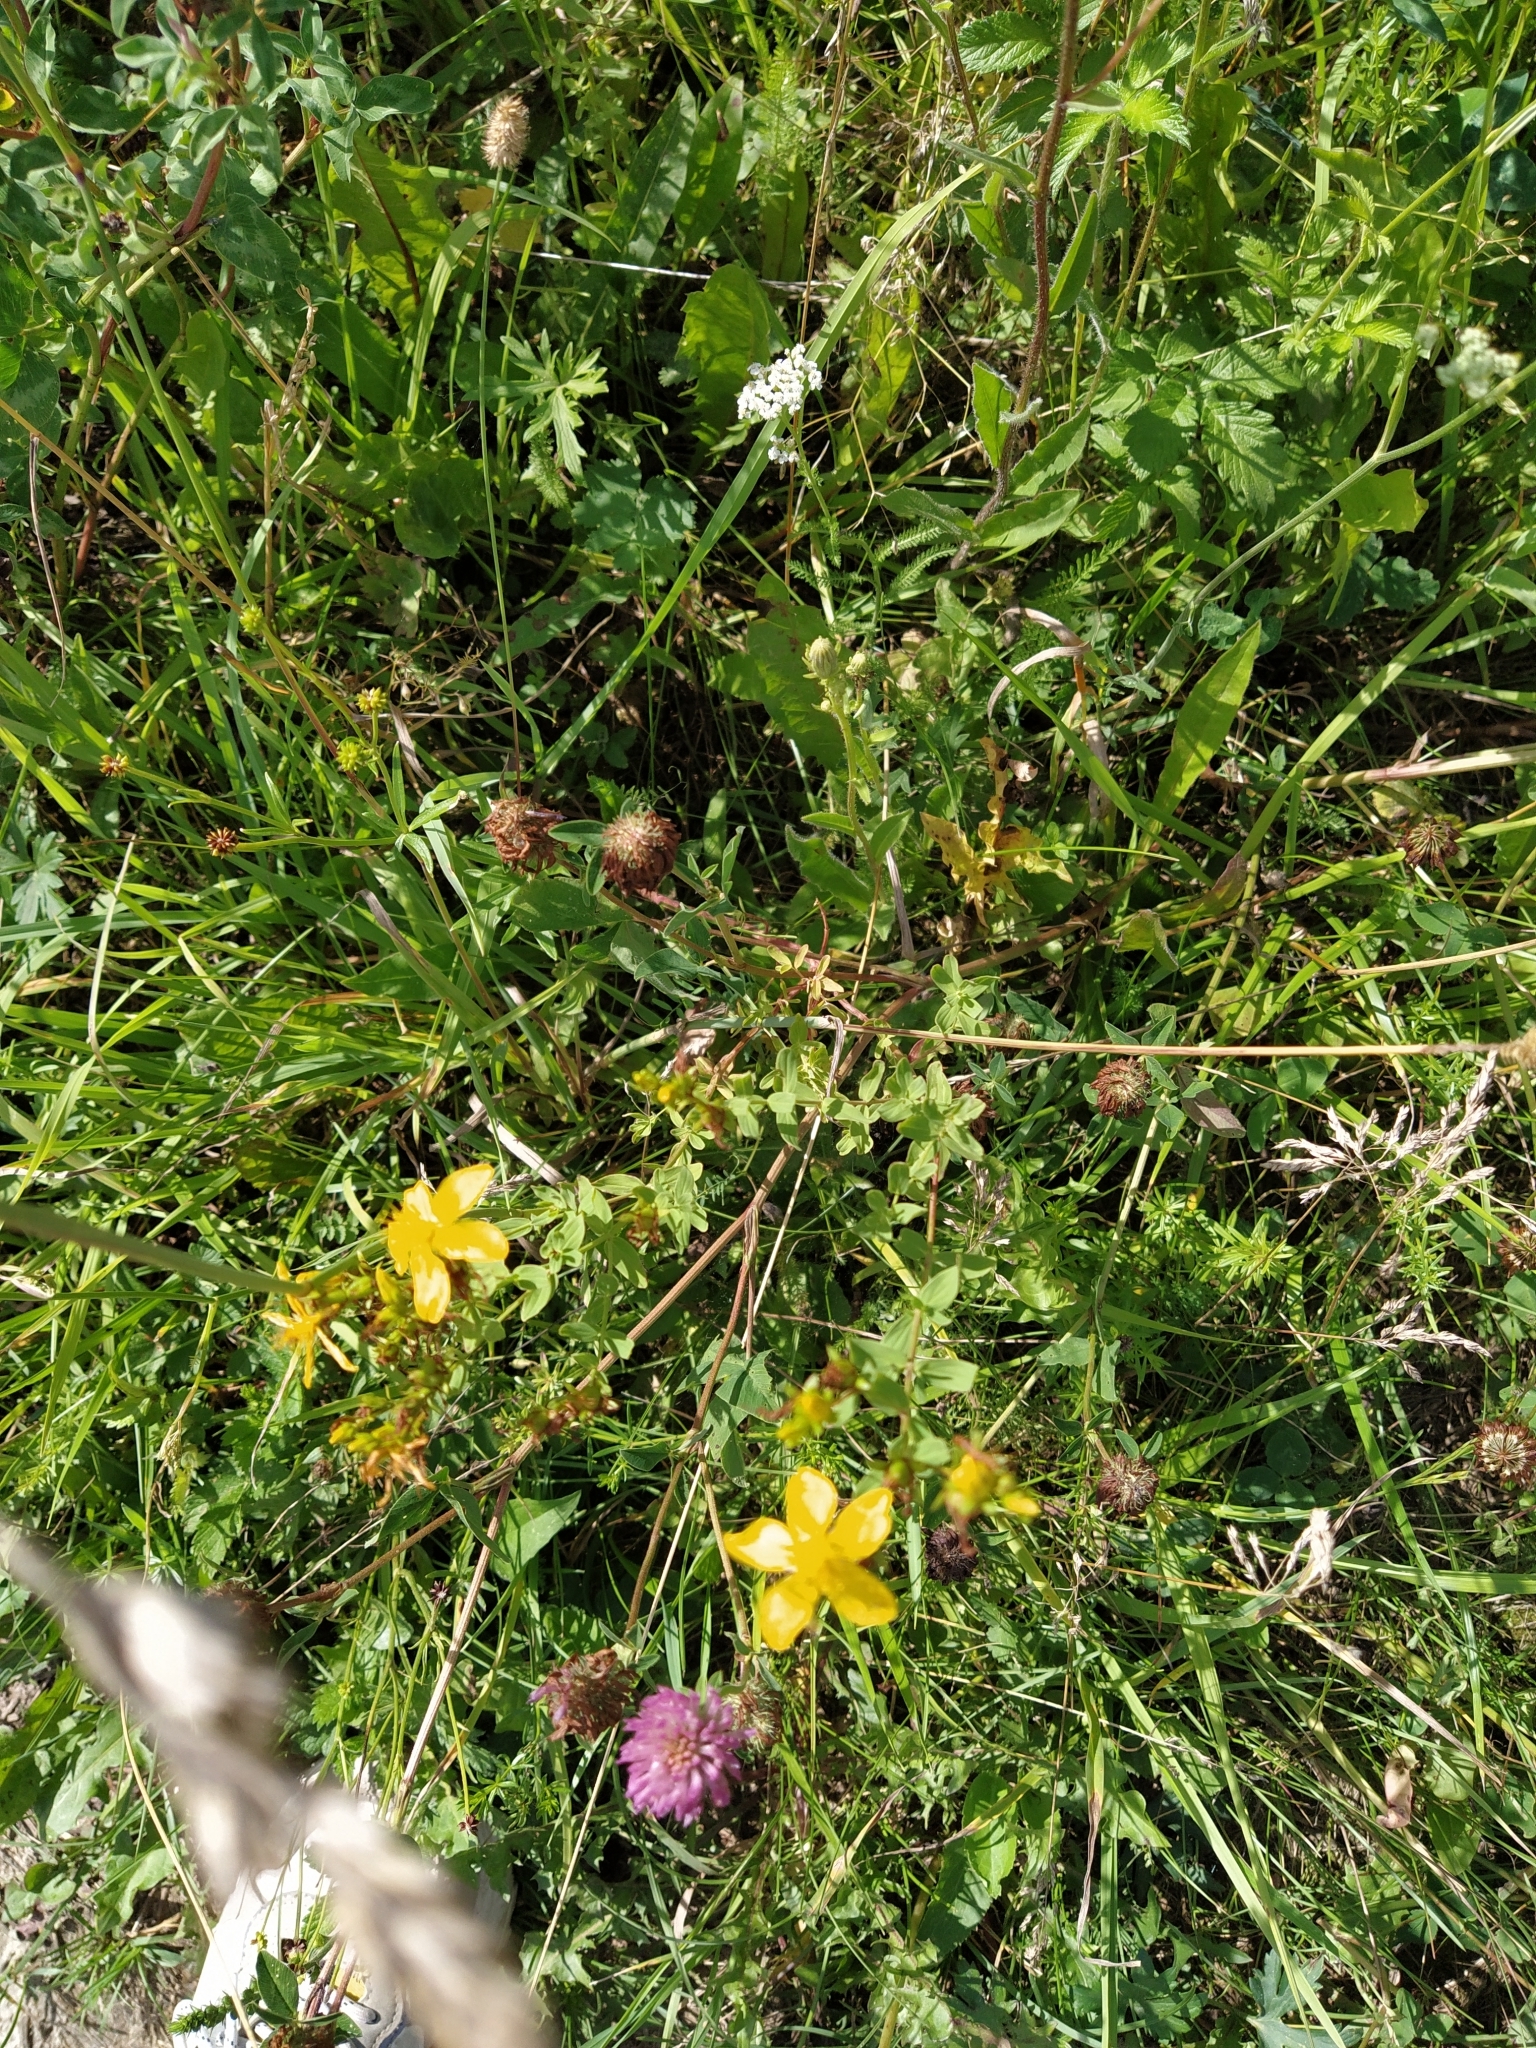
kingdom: Plantae
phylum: Tracheophyta
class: Magnoliopsida
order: Malpighiales
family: Hypericaceae
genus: Hypericum
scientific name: Hypericum perforatum
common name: Common st. johnswort
